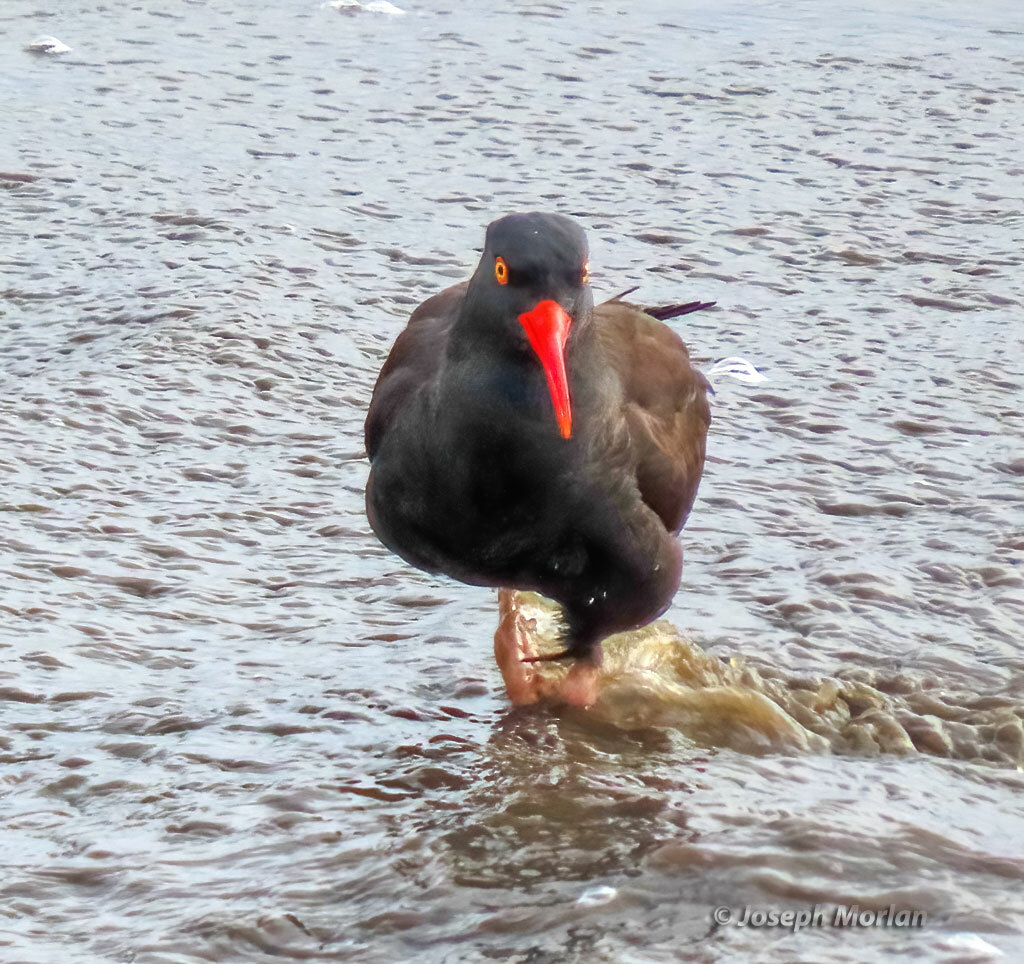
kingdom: Animalia
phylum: Chordata
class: Aves
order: Charadriiformes
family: Haematopodidae
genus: Haematopus
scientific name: Haematopus bachmani
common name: Black oystercatcher
